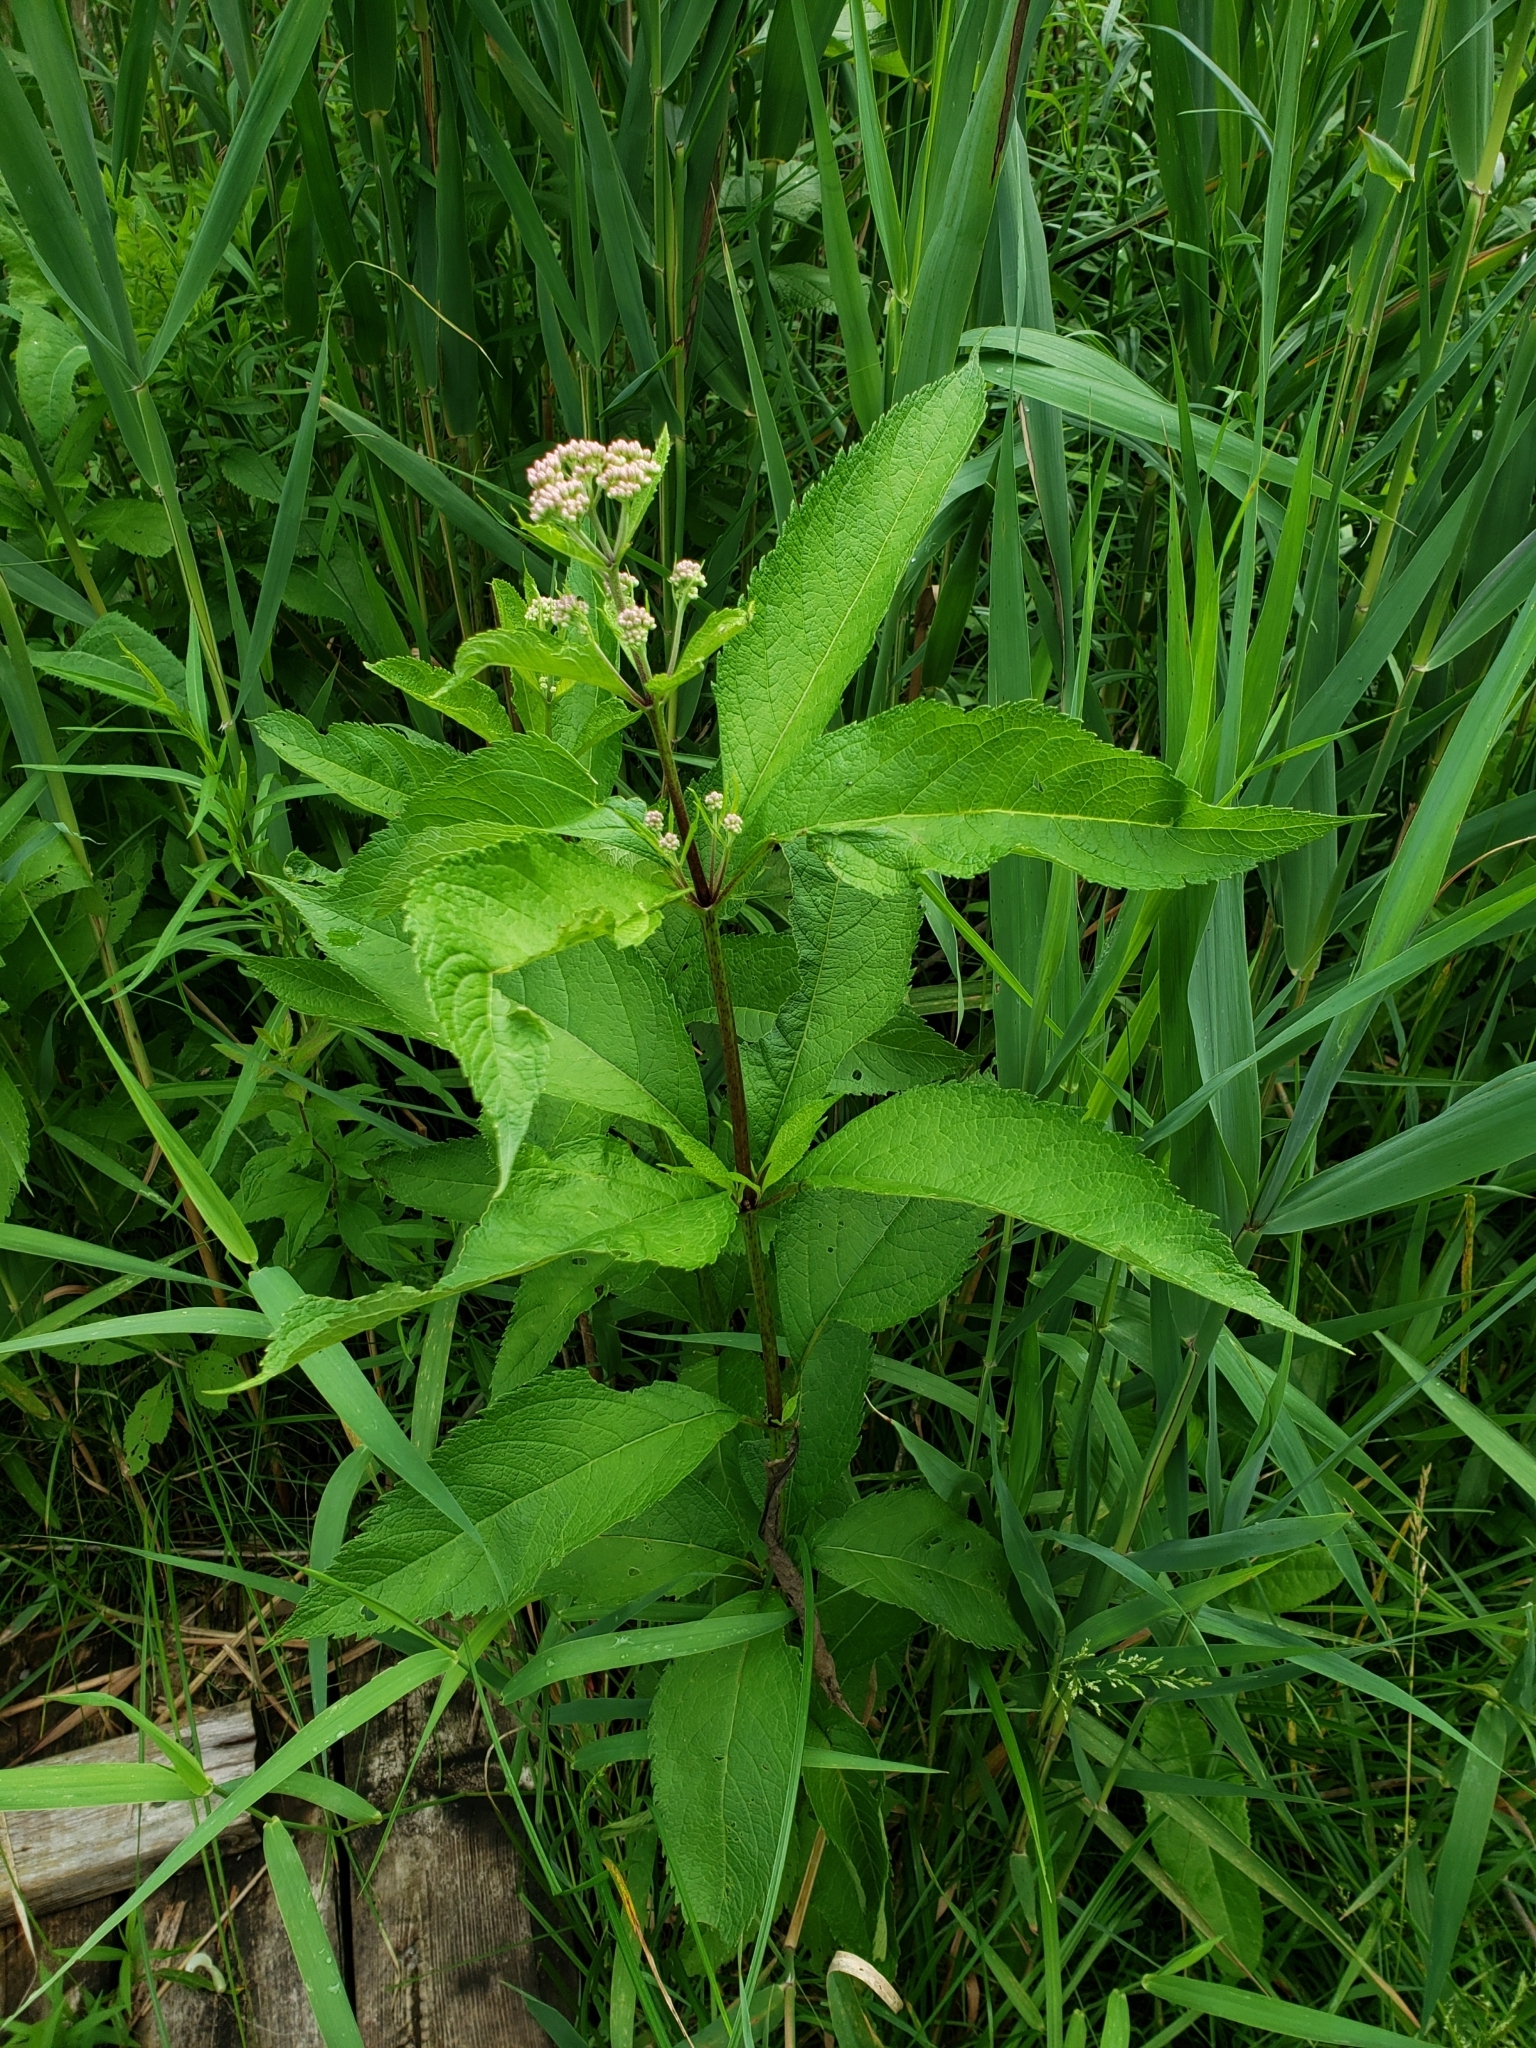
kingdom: Plantae
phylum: Tracheophyta
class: Magnoliopsida
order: Asterales
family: Asteraceae
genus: Eutrochium
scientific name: Eutrochium maculatum
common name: Spotted joe pye weed
